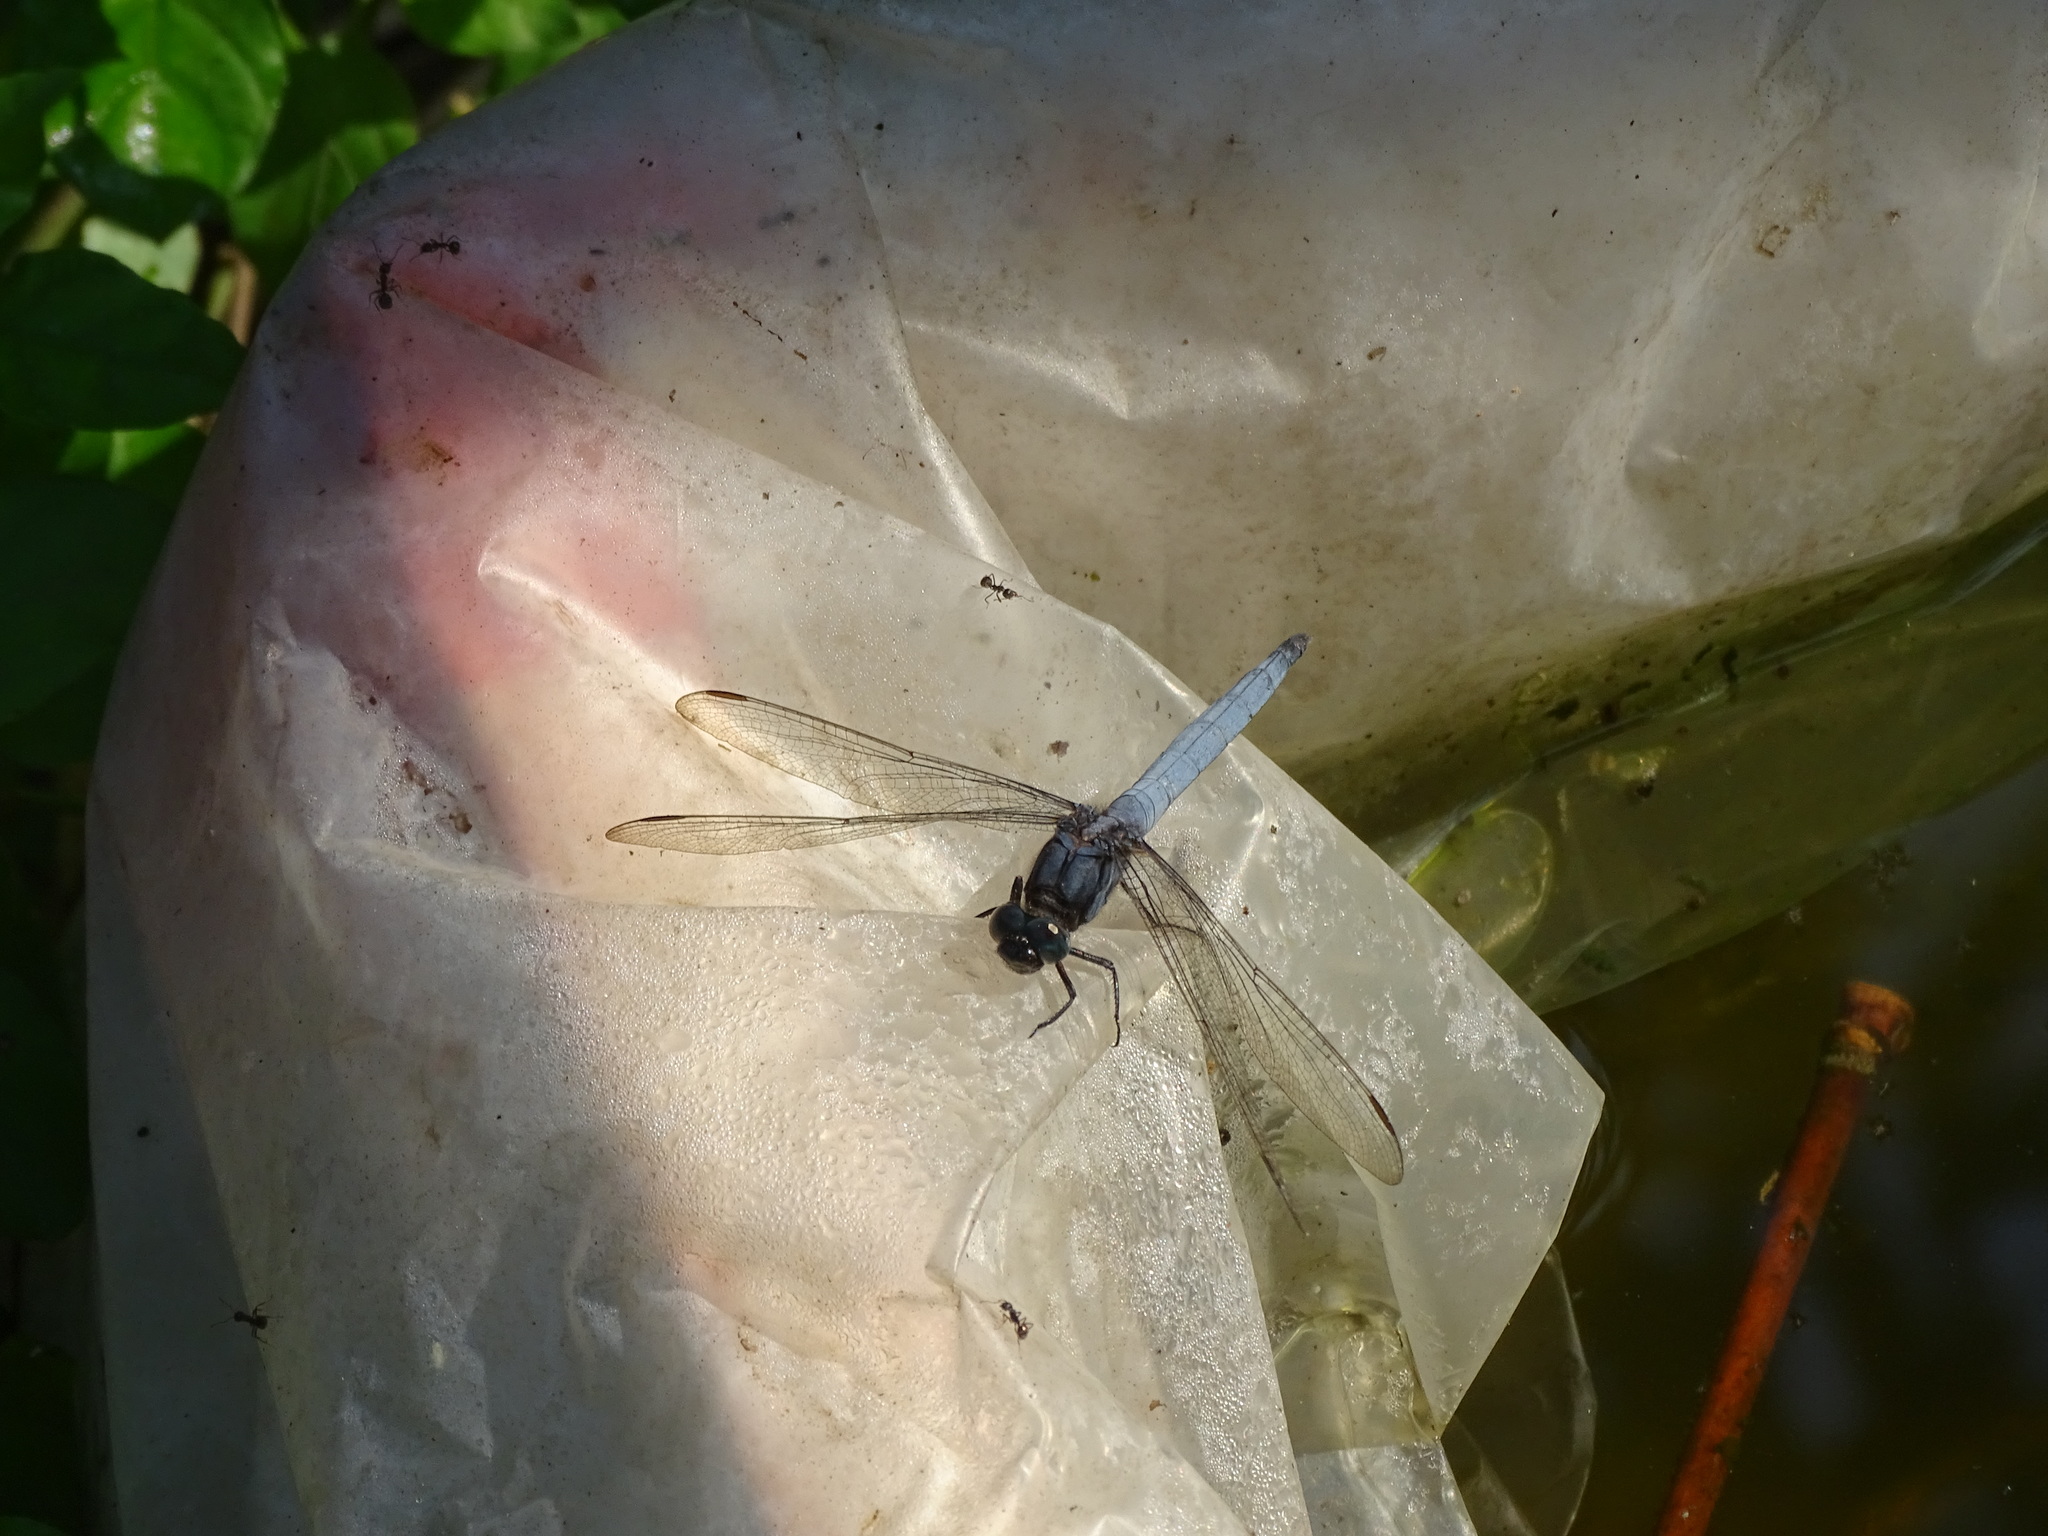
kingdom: Animalia
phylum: Arthropoda
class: Insecta
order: Odonata
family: Libellulidae
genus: Orthetrum
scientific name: Orthetrum glaucum
